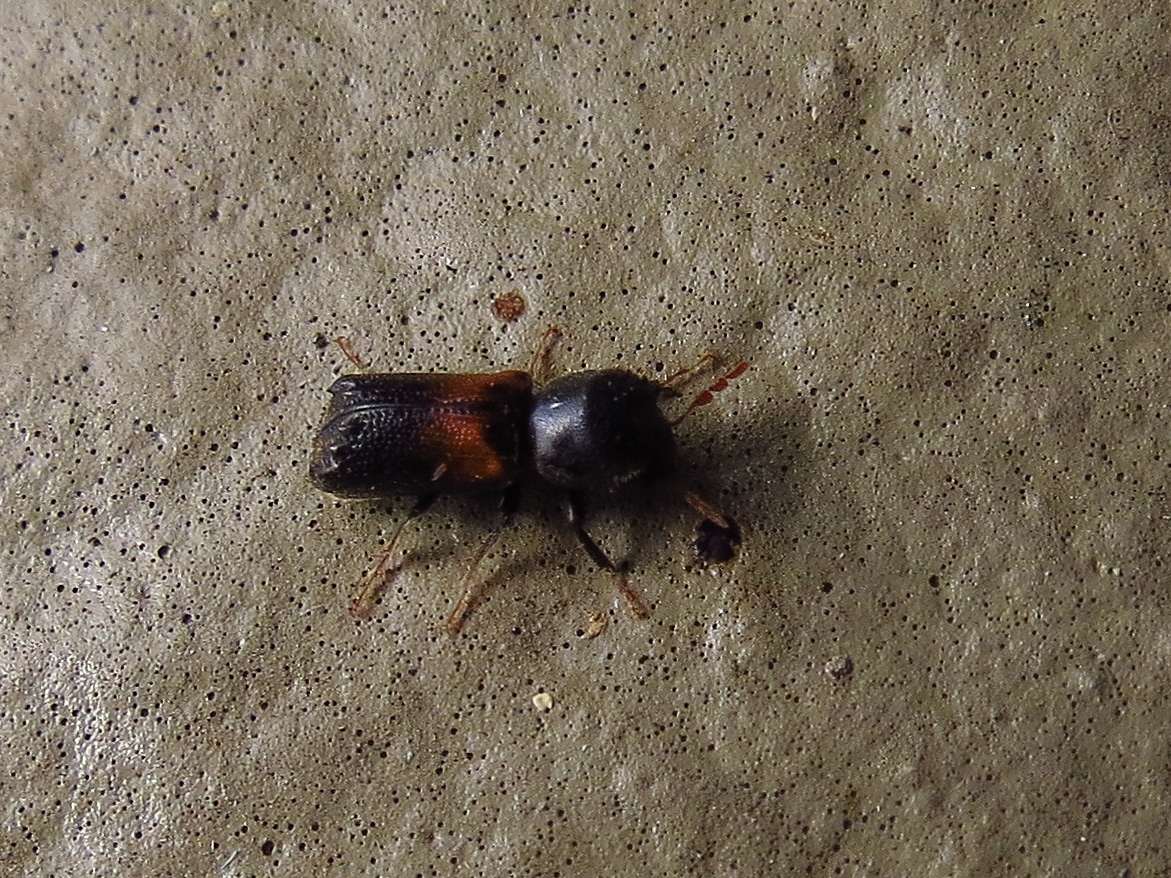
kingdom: Animalia
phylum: Arthropoda
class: Insecta
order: Coleoptera
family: Bostrichidae
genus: Xylobiops
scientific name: Xylobiops basilaris
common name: Red-shouldered bostrichid
